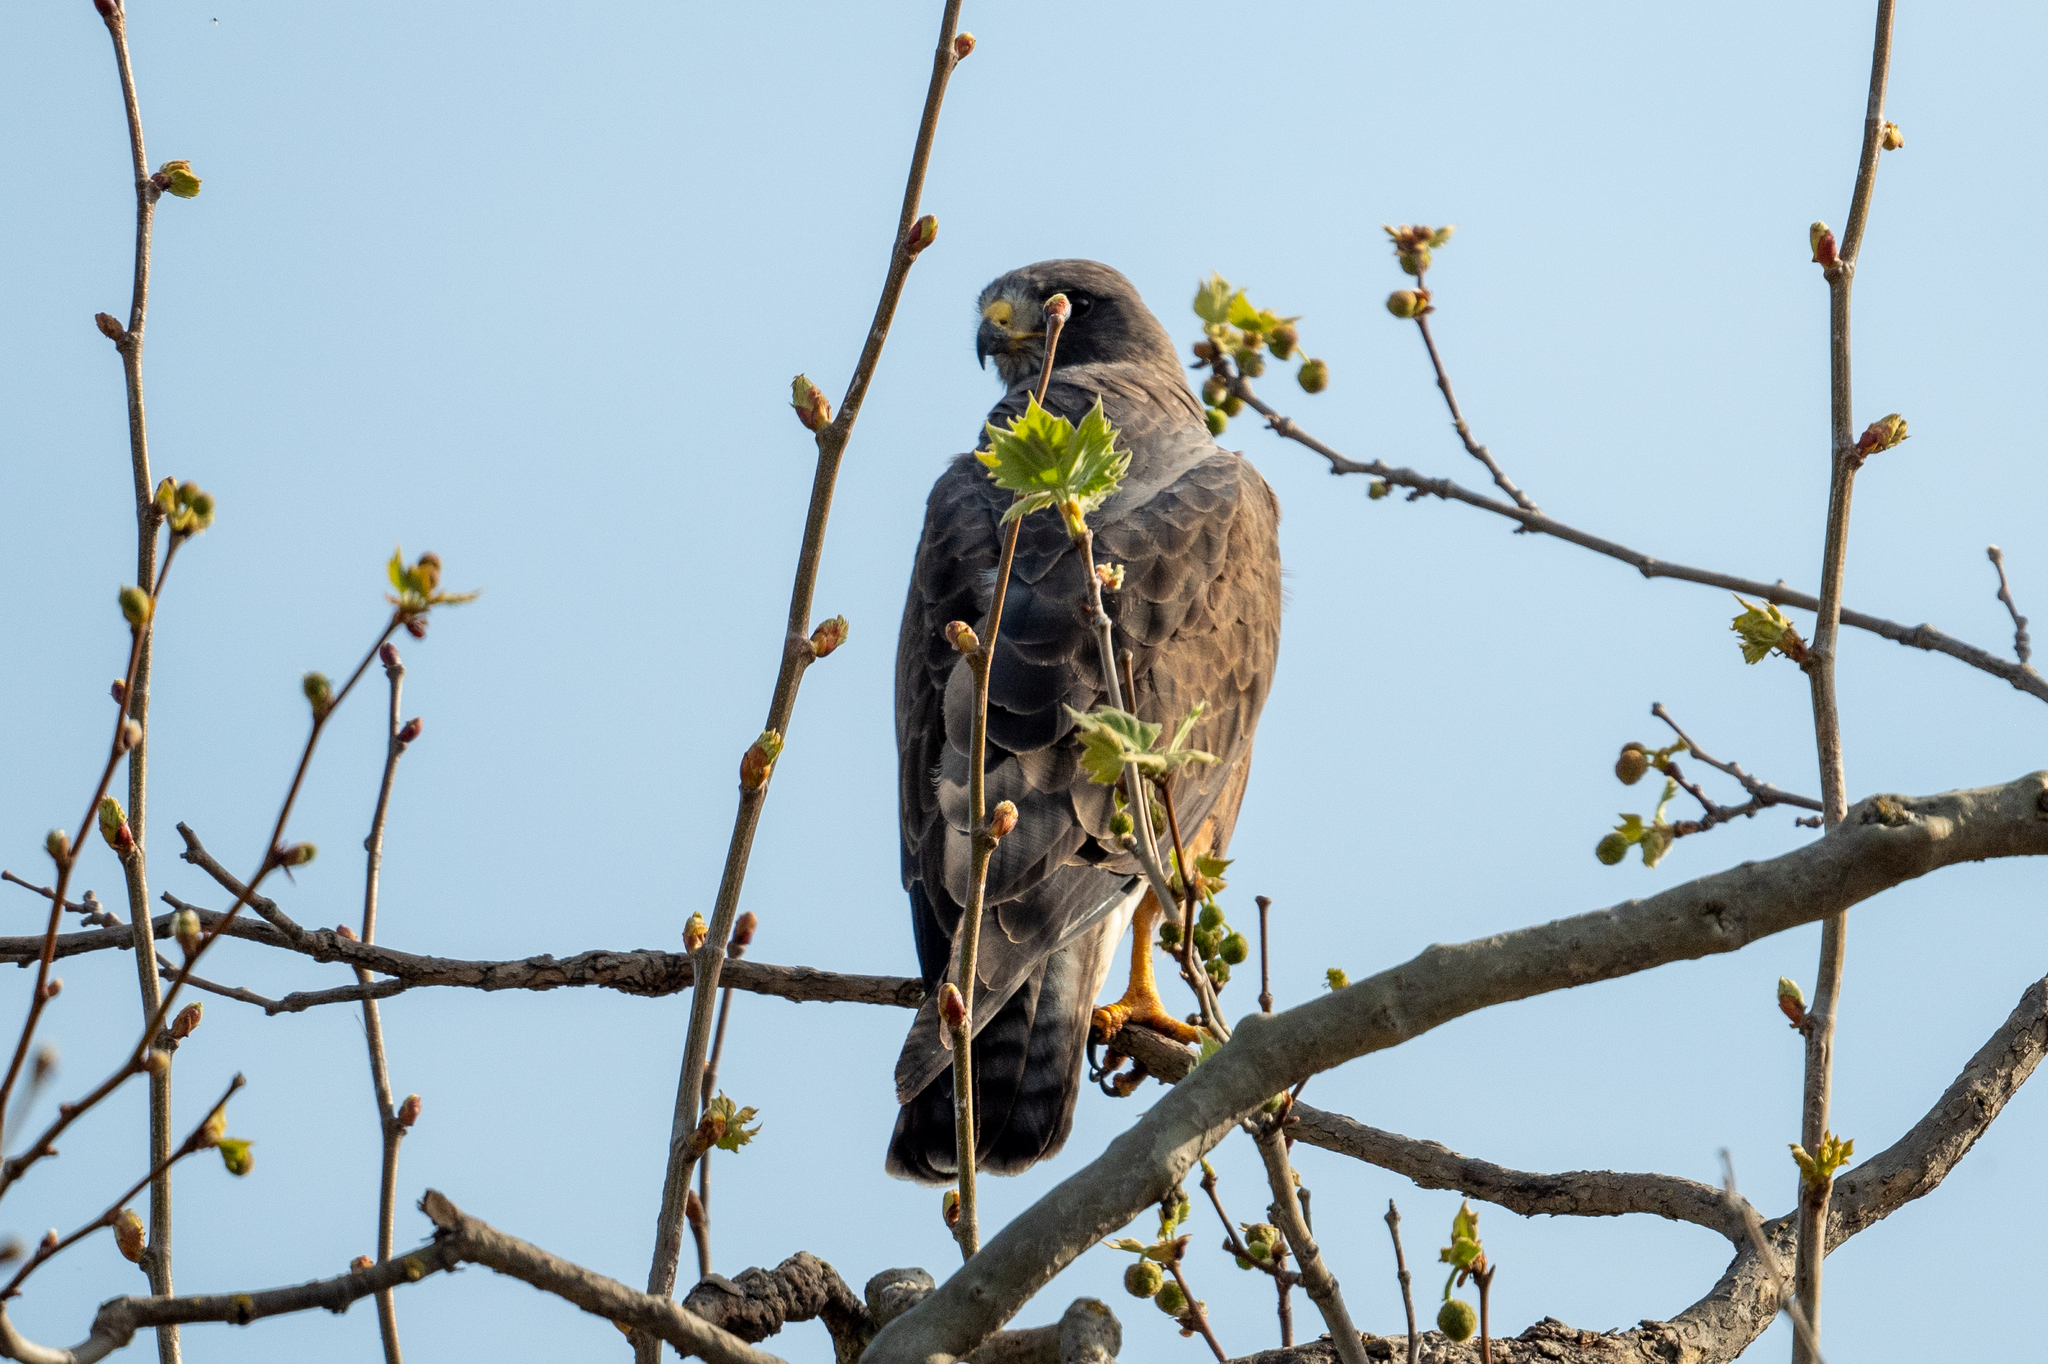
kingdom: Animalia
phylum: Chordata
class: Aves
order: Accipitriformes
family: Accipitridae
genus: Buteo
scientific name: Buteo swainsoni
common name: Swainson's hawk
